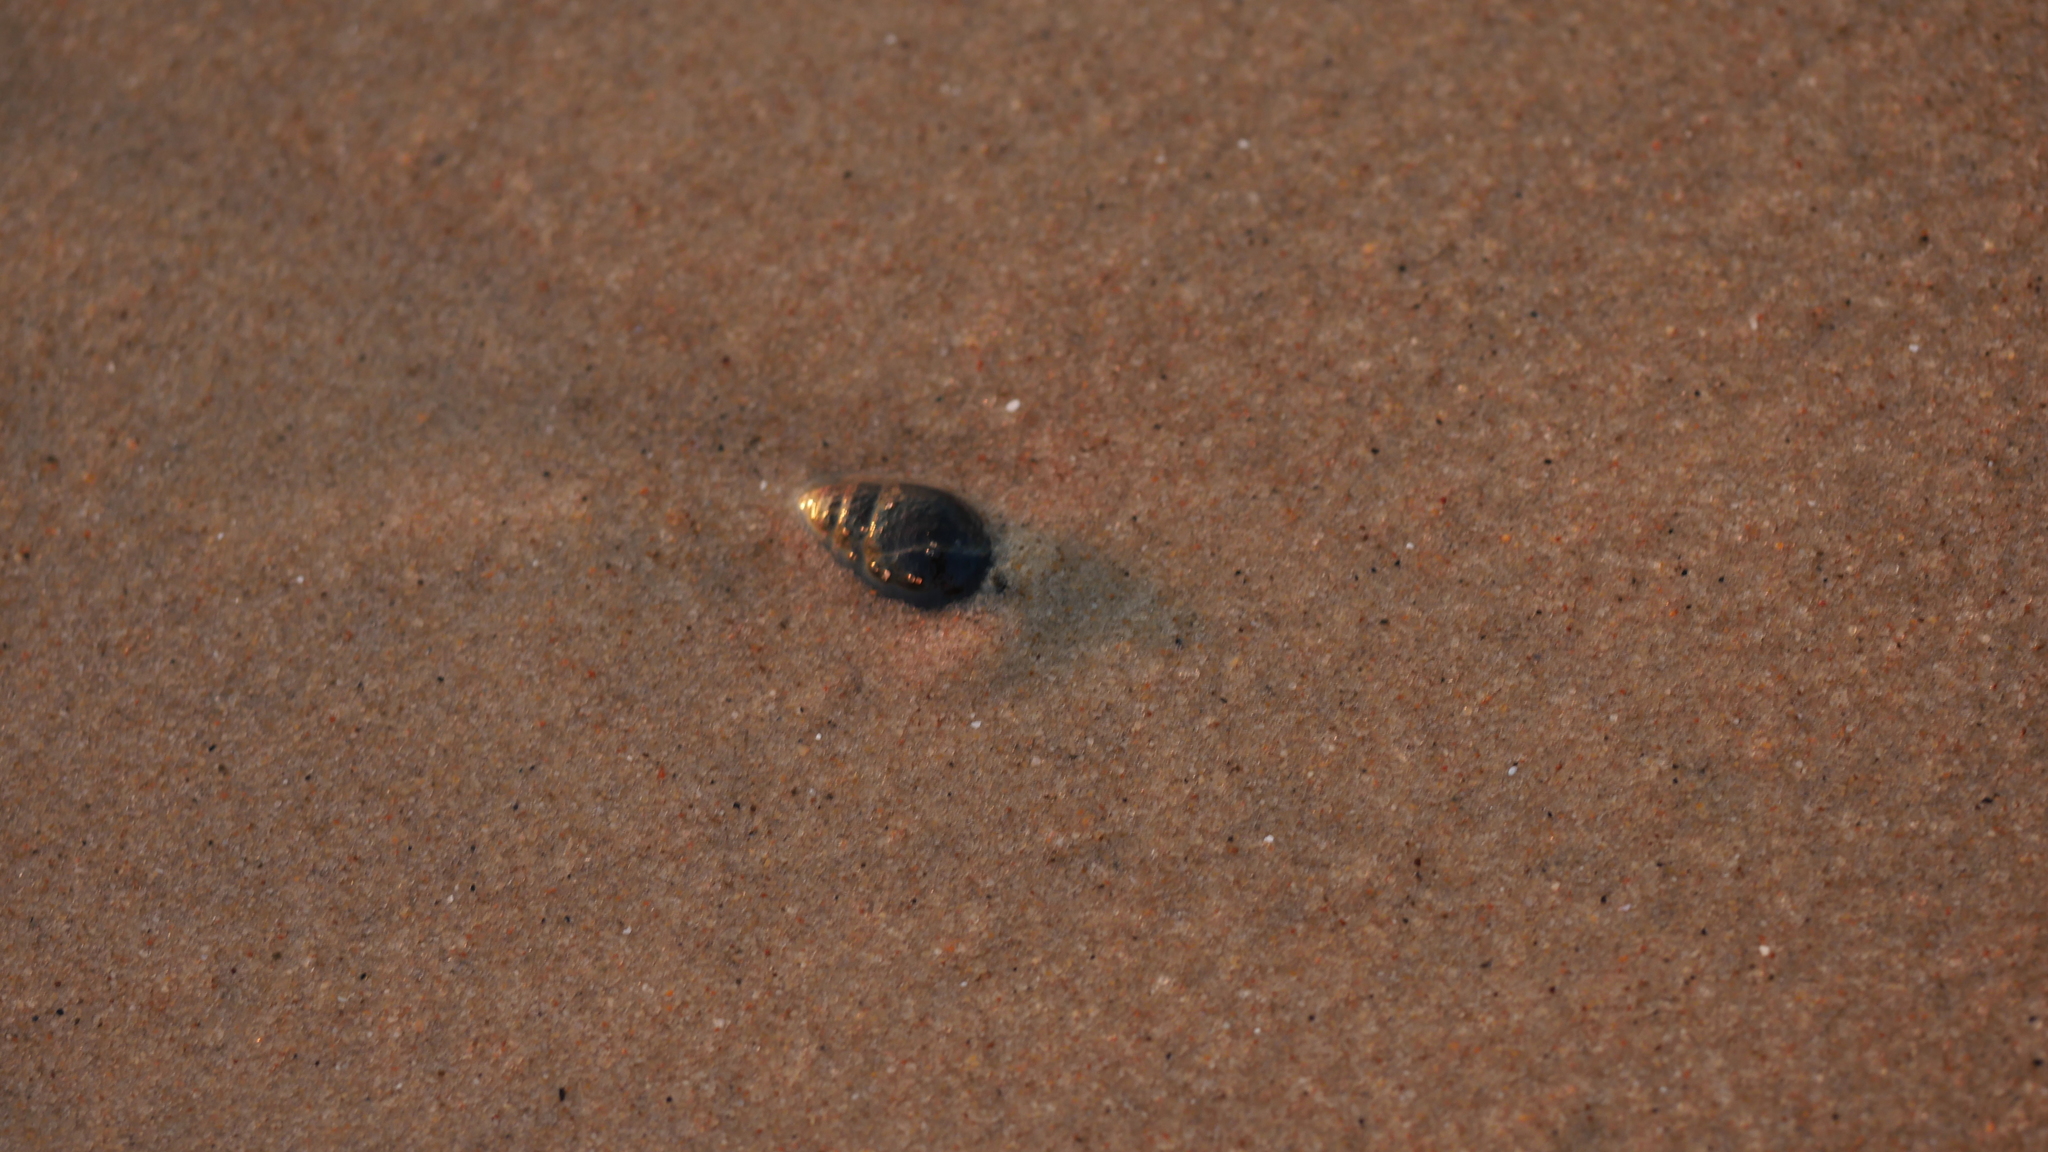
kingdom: Animalia
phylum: Mollusca
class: Gastropoda
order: Neogastropoda
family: Nassariidae
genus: Ilyanassa
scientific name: Ilyanassa obsoleta
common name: Eastern mudsnail
